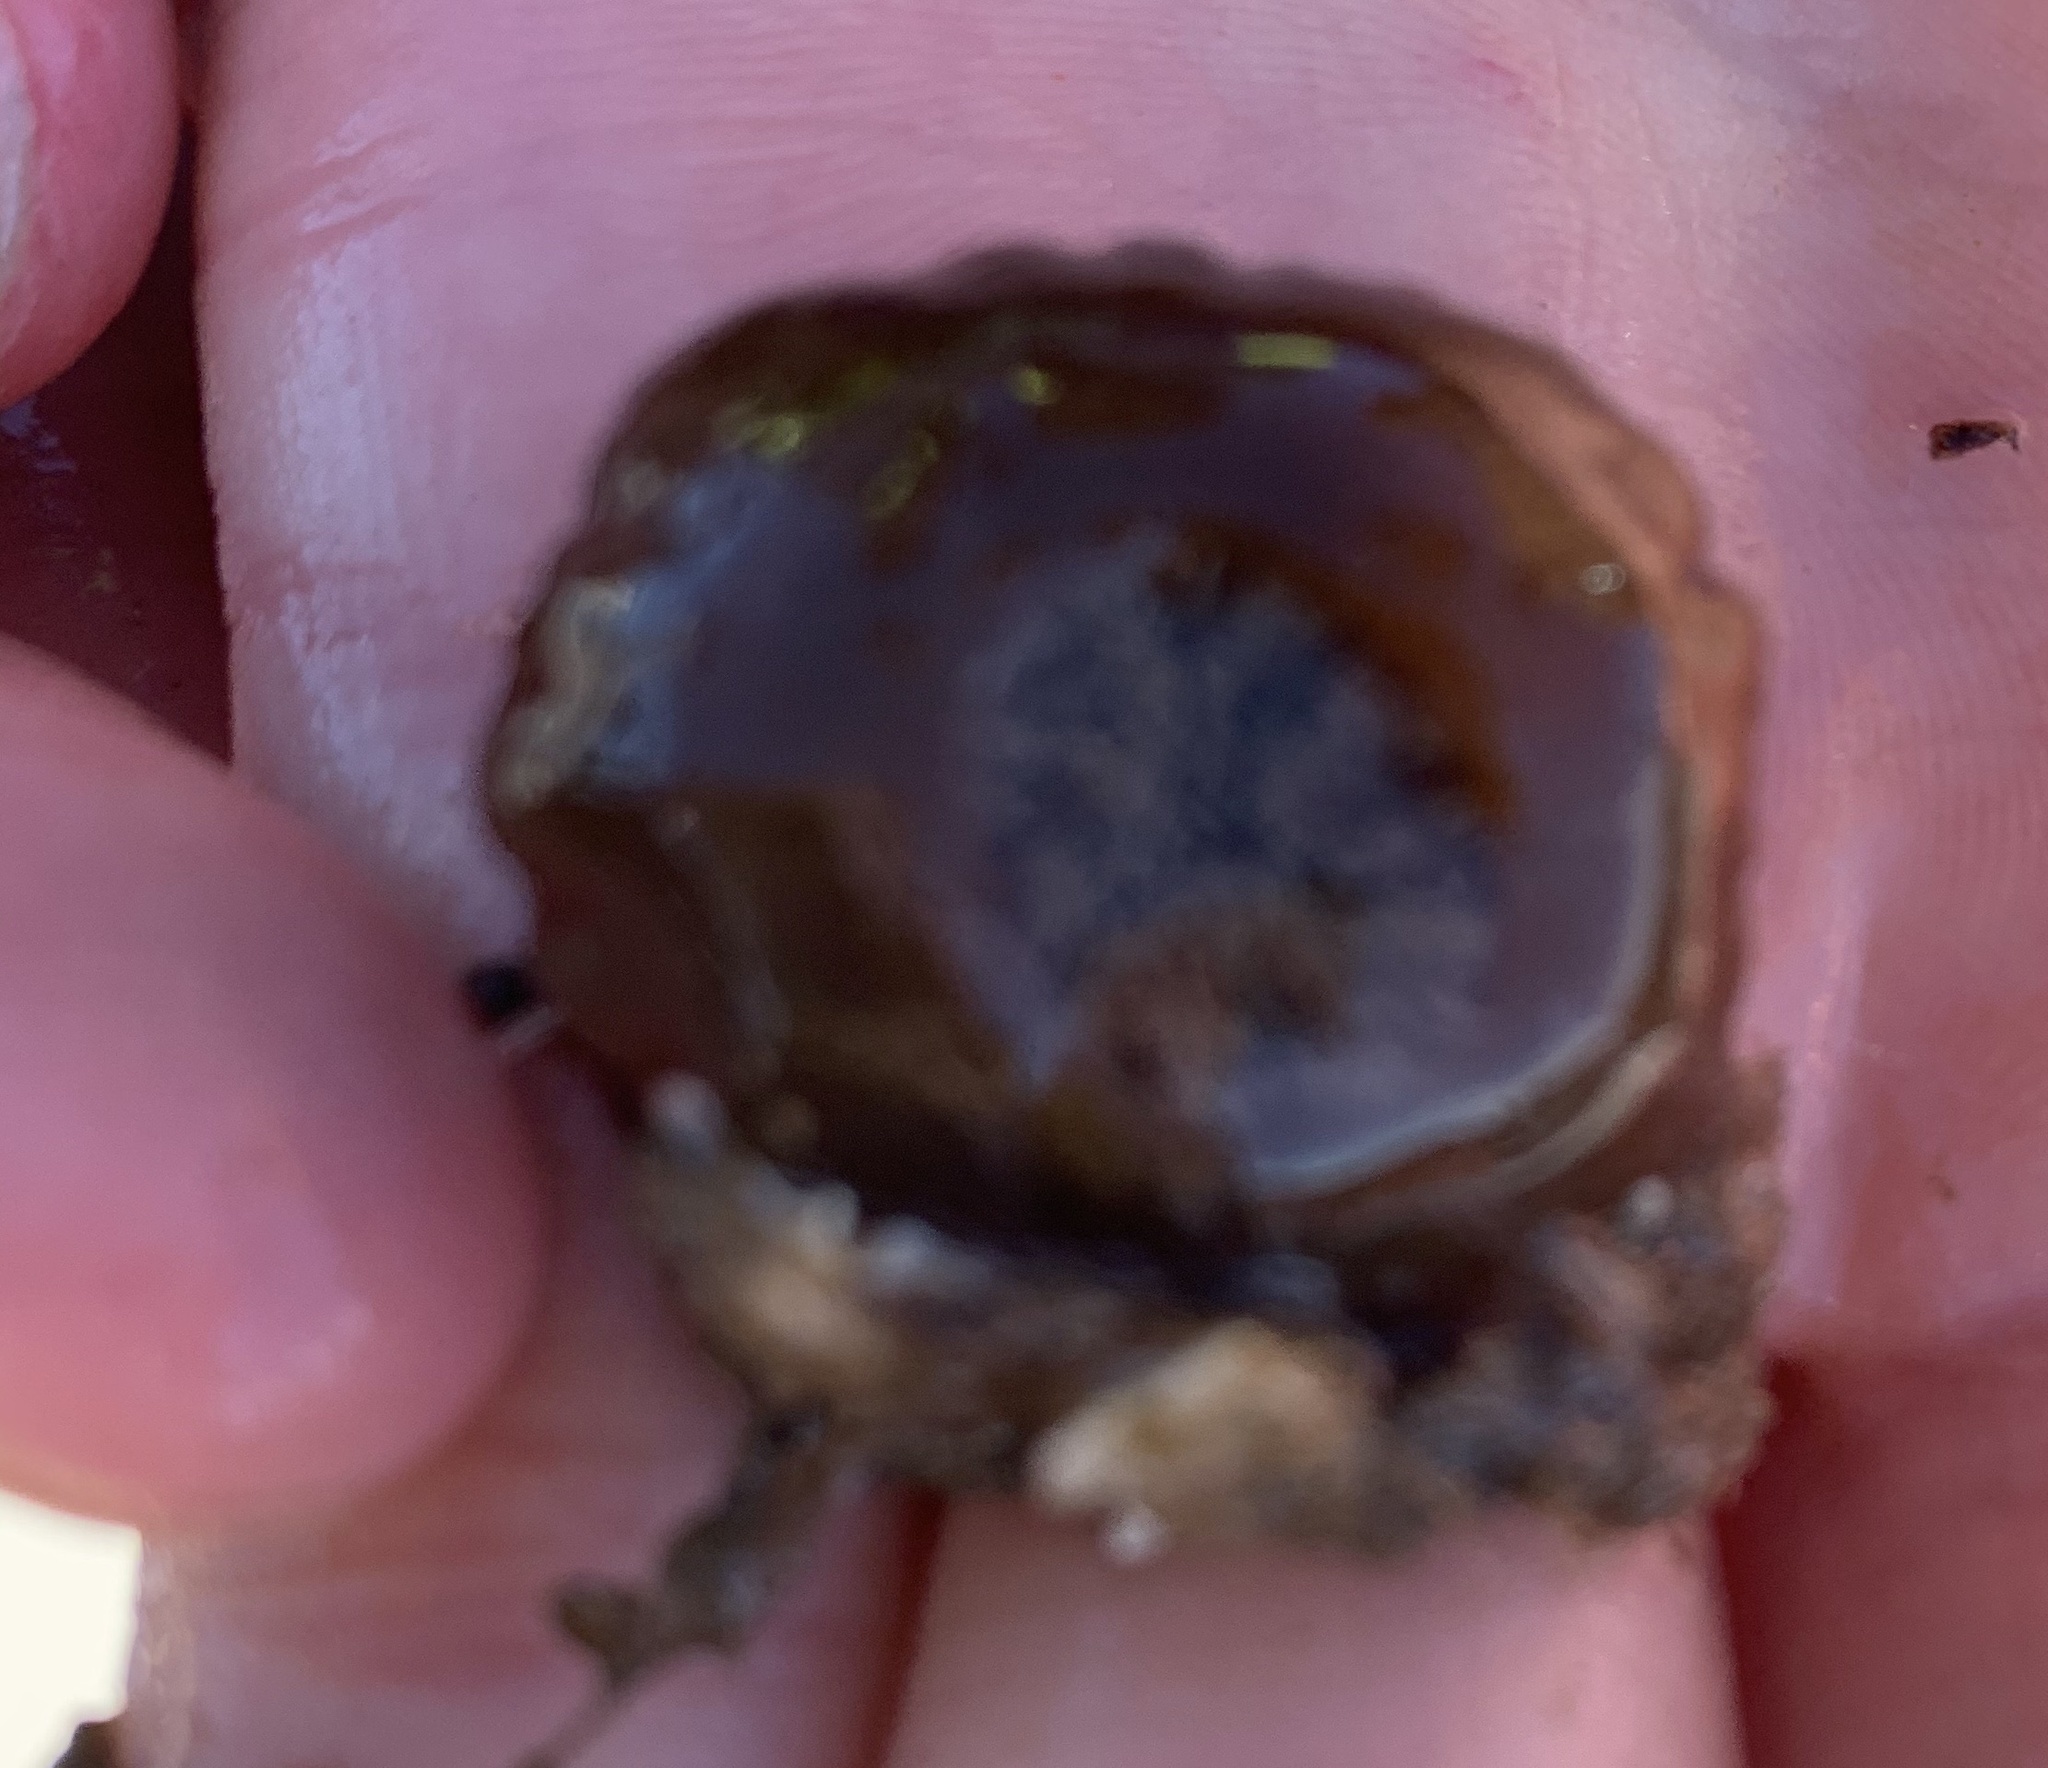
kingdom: Animalia
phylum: Cnidaria
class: Anthozoa
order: Actiniaria
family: Metridiidae
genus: Metridium
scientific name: Metridium senile
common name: Clonal plumose anemone
